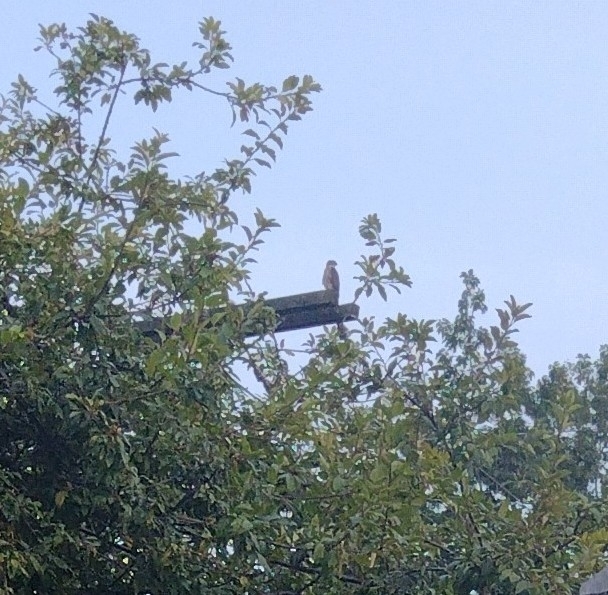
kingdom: Animalia
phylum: Chordata
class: Aves
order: Accipitriformes
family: Accipitridae
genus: Accipiter
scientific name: Accipiter cooperii
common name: Cooper's hawk
